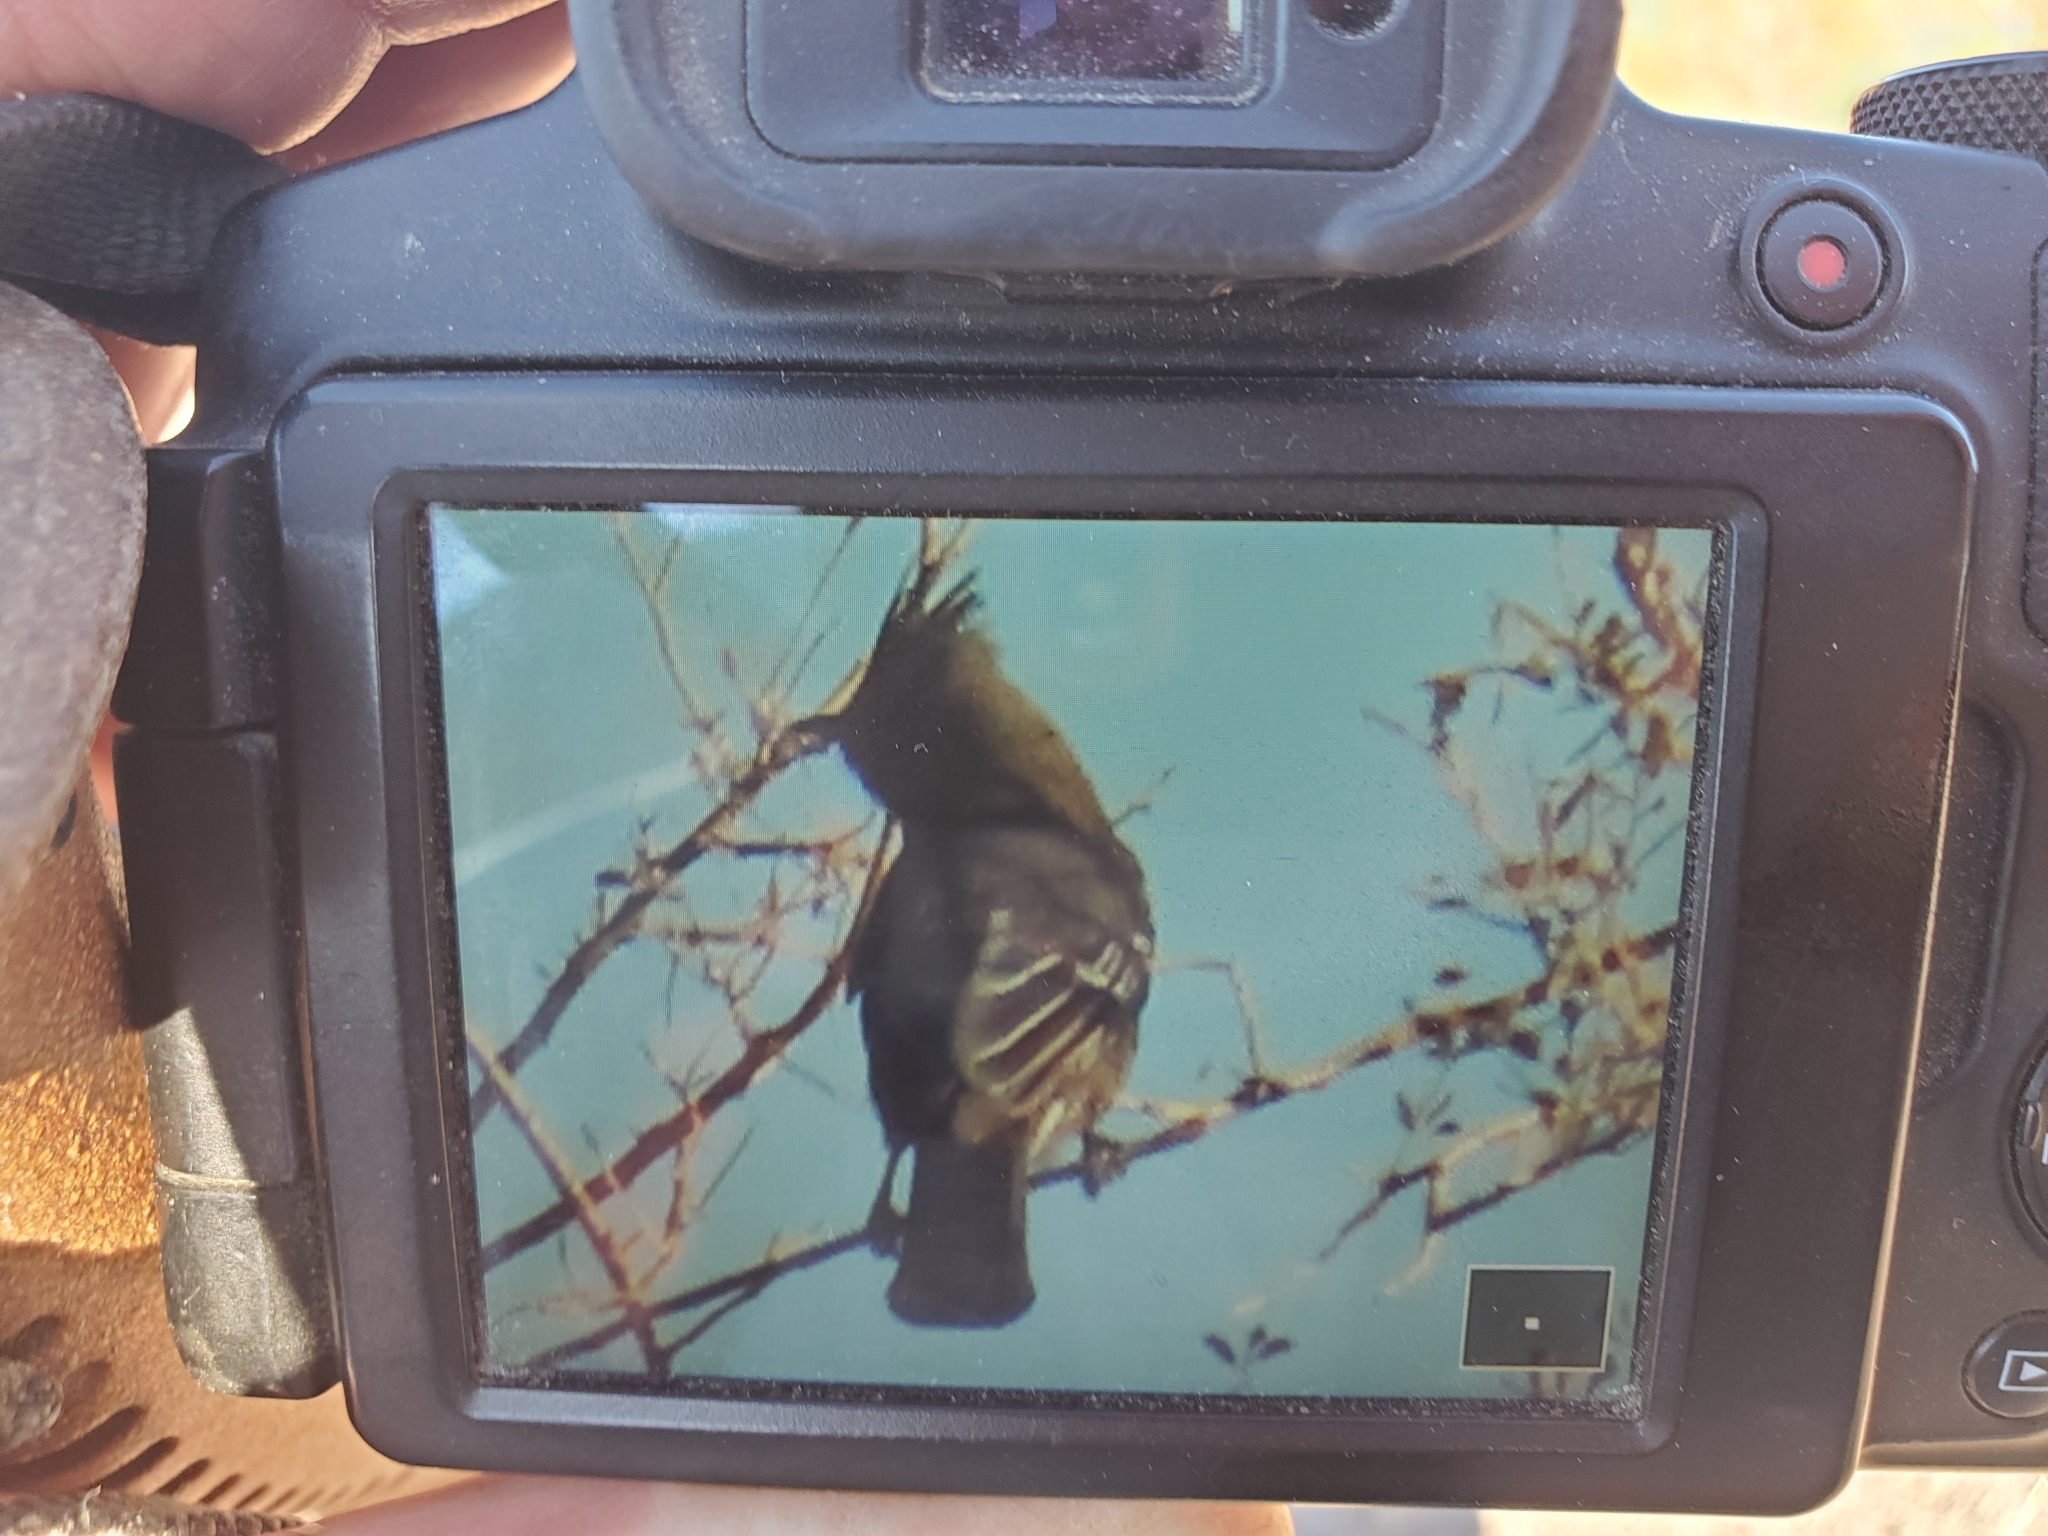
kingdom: Animalia
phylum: Chordata
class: Aves
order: Passeriformes
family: Ptilogonatidae
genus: Phainopepla
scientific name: Phainopepla nitens
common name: Phainopepla
